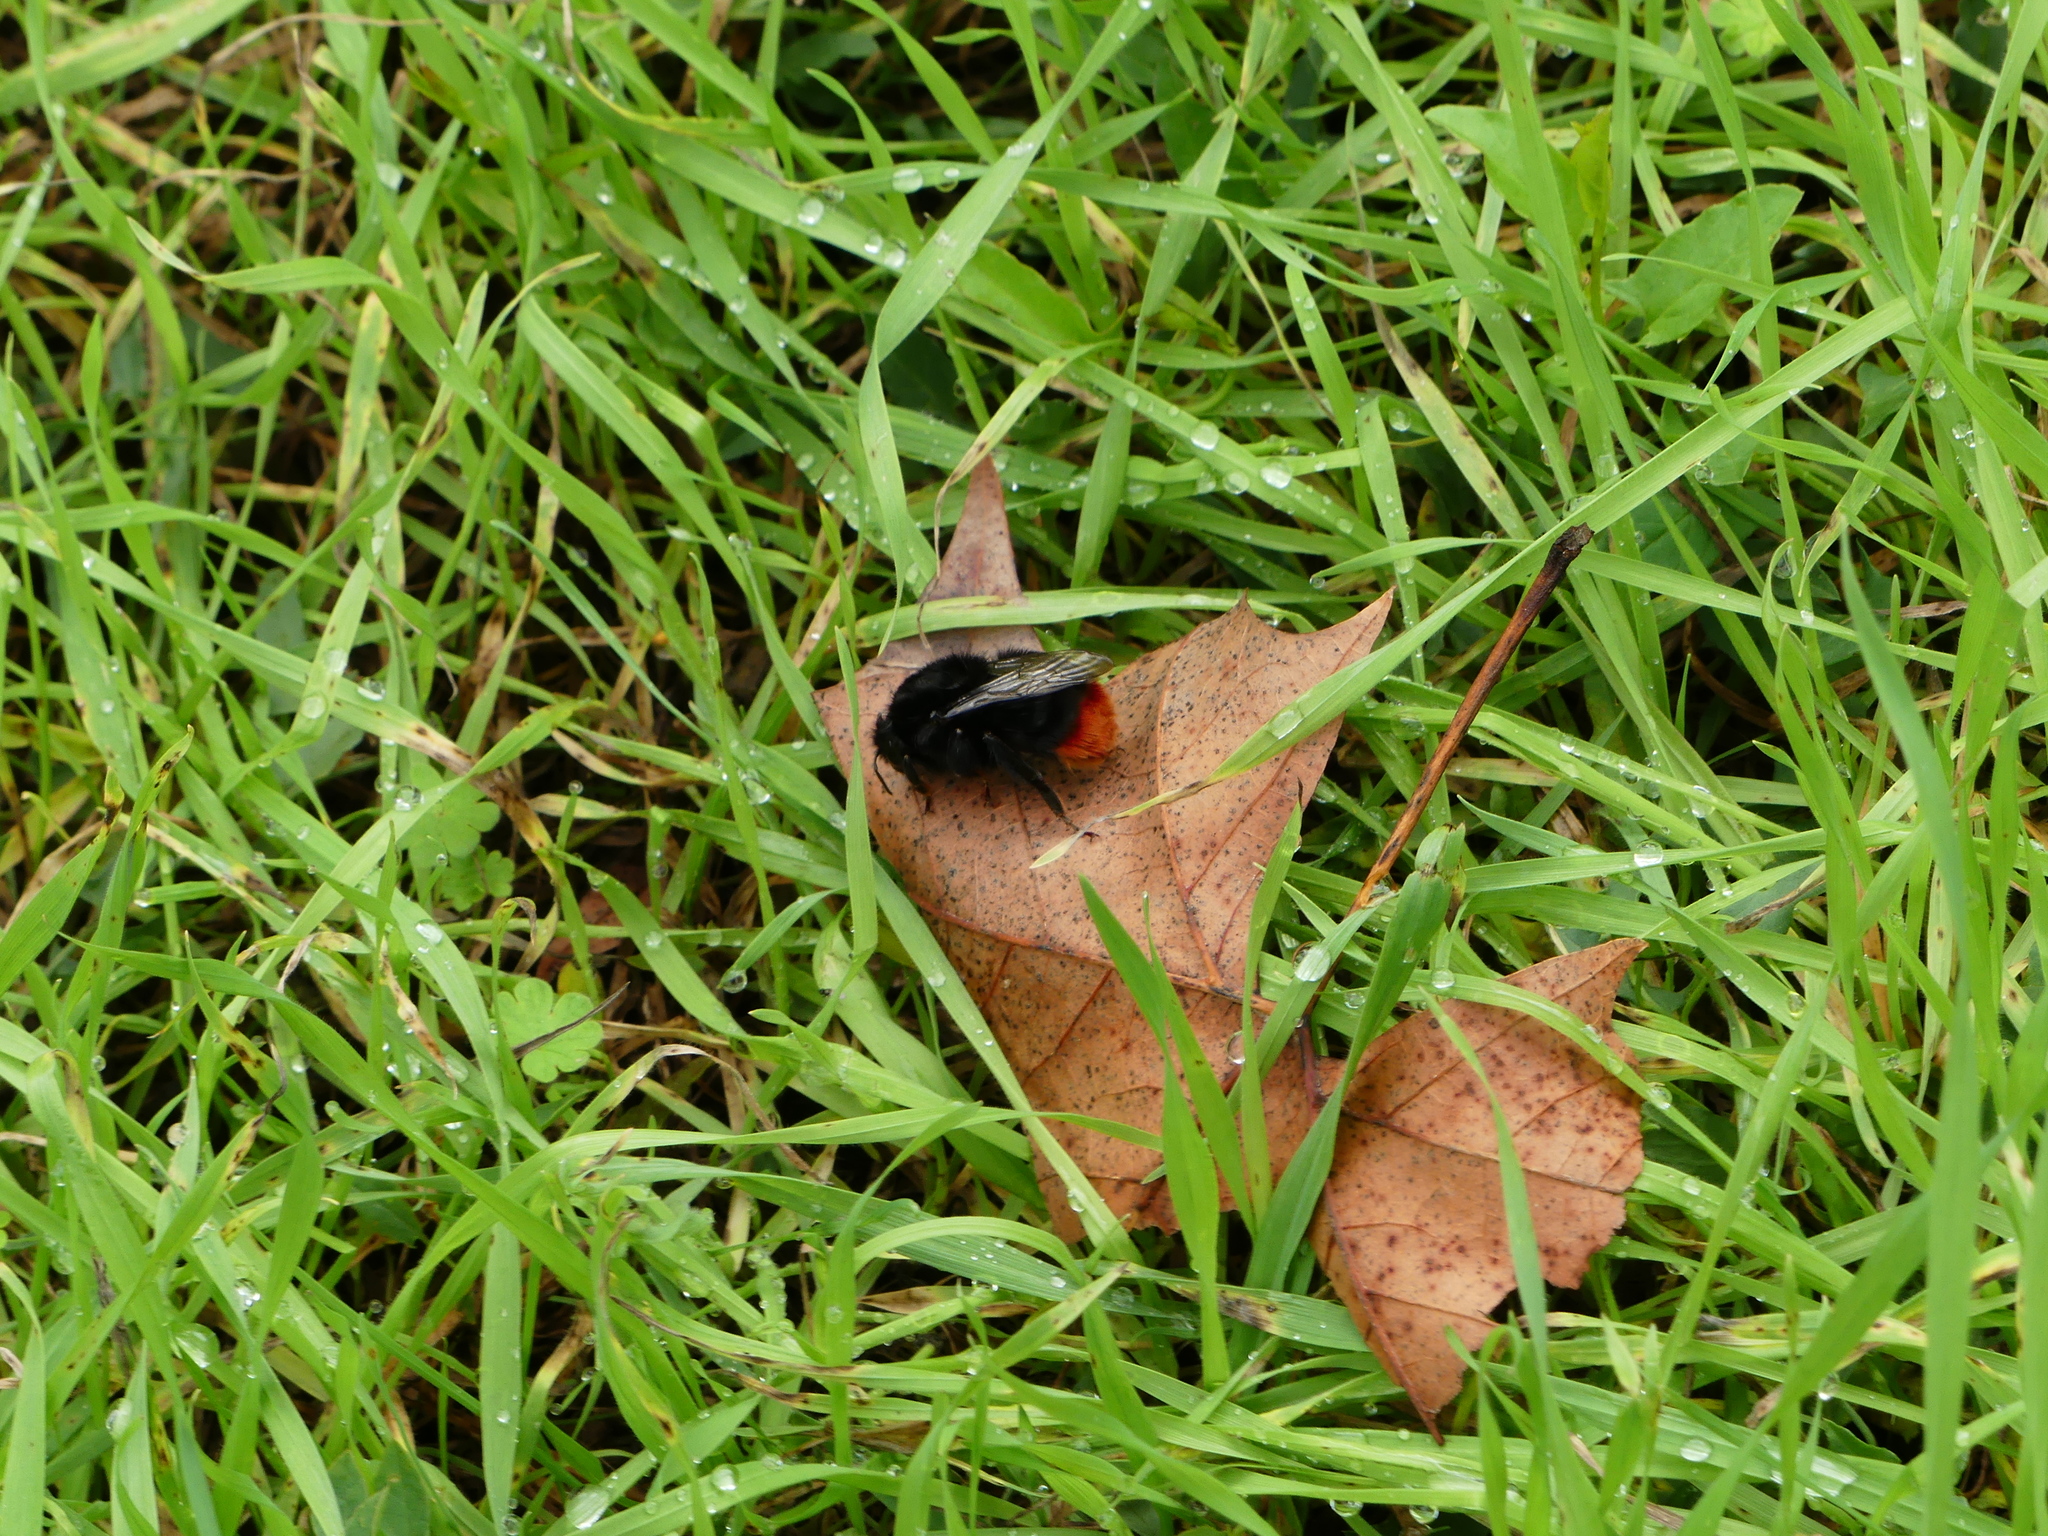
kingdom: Animalia
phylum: Arthropoda
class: Insecta
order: Hymenoptera
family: Apidae
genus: Bombus
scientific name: Bombus lapidarius
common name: Large red-tailed humble-bee
